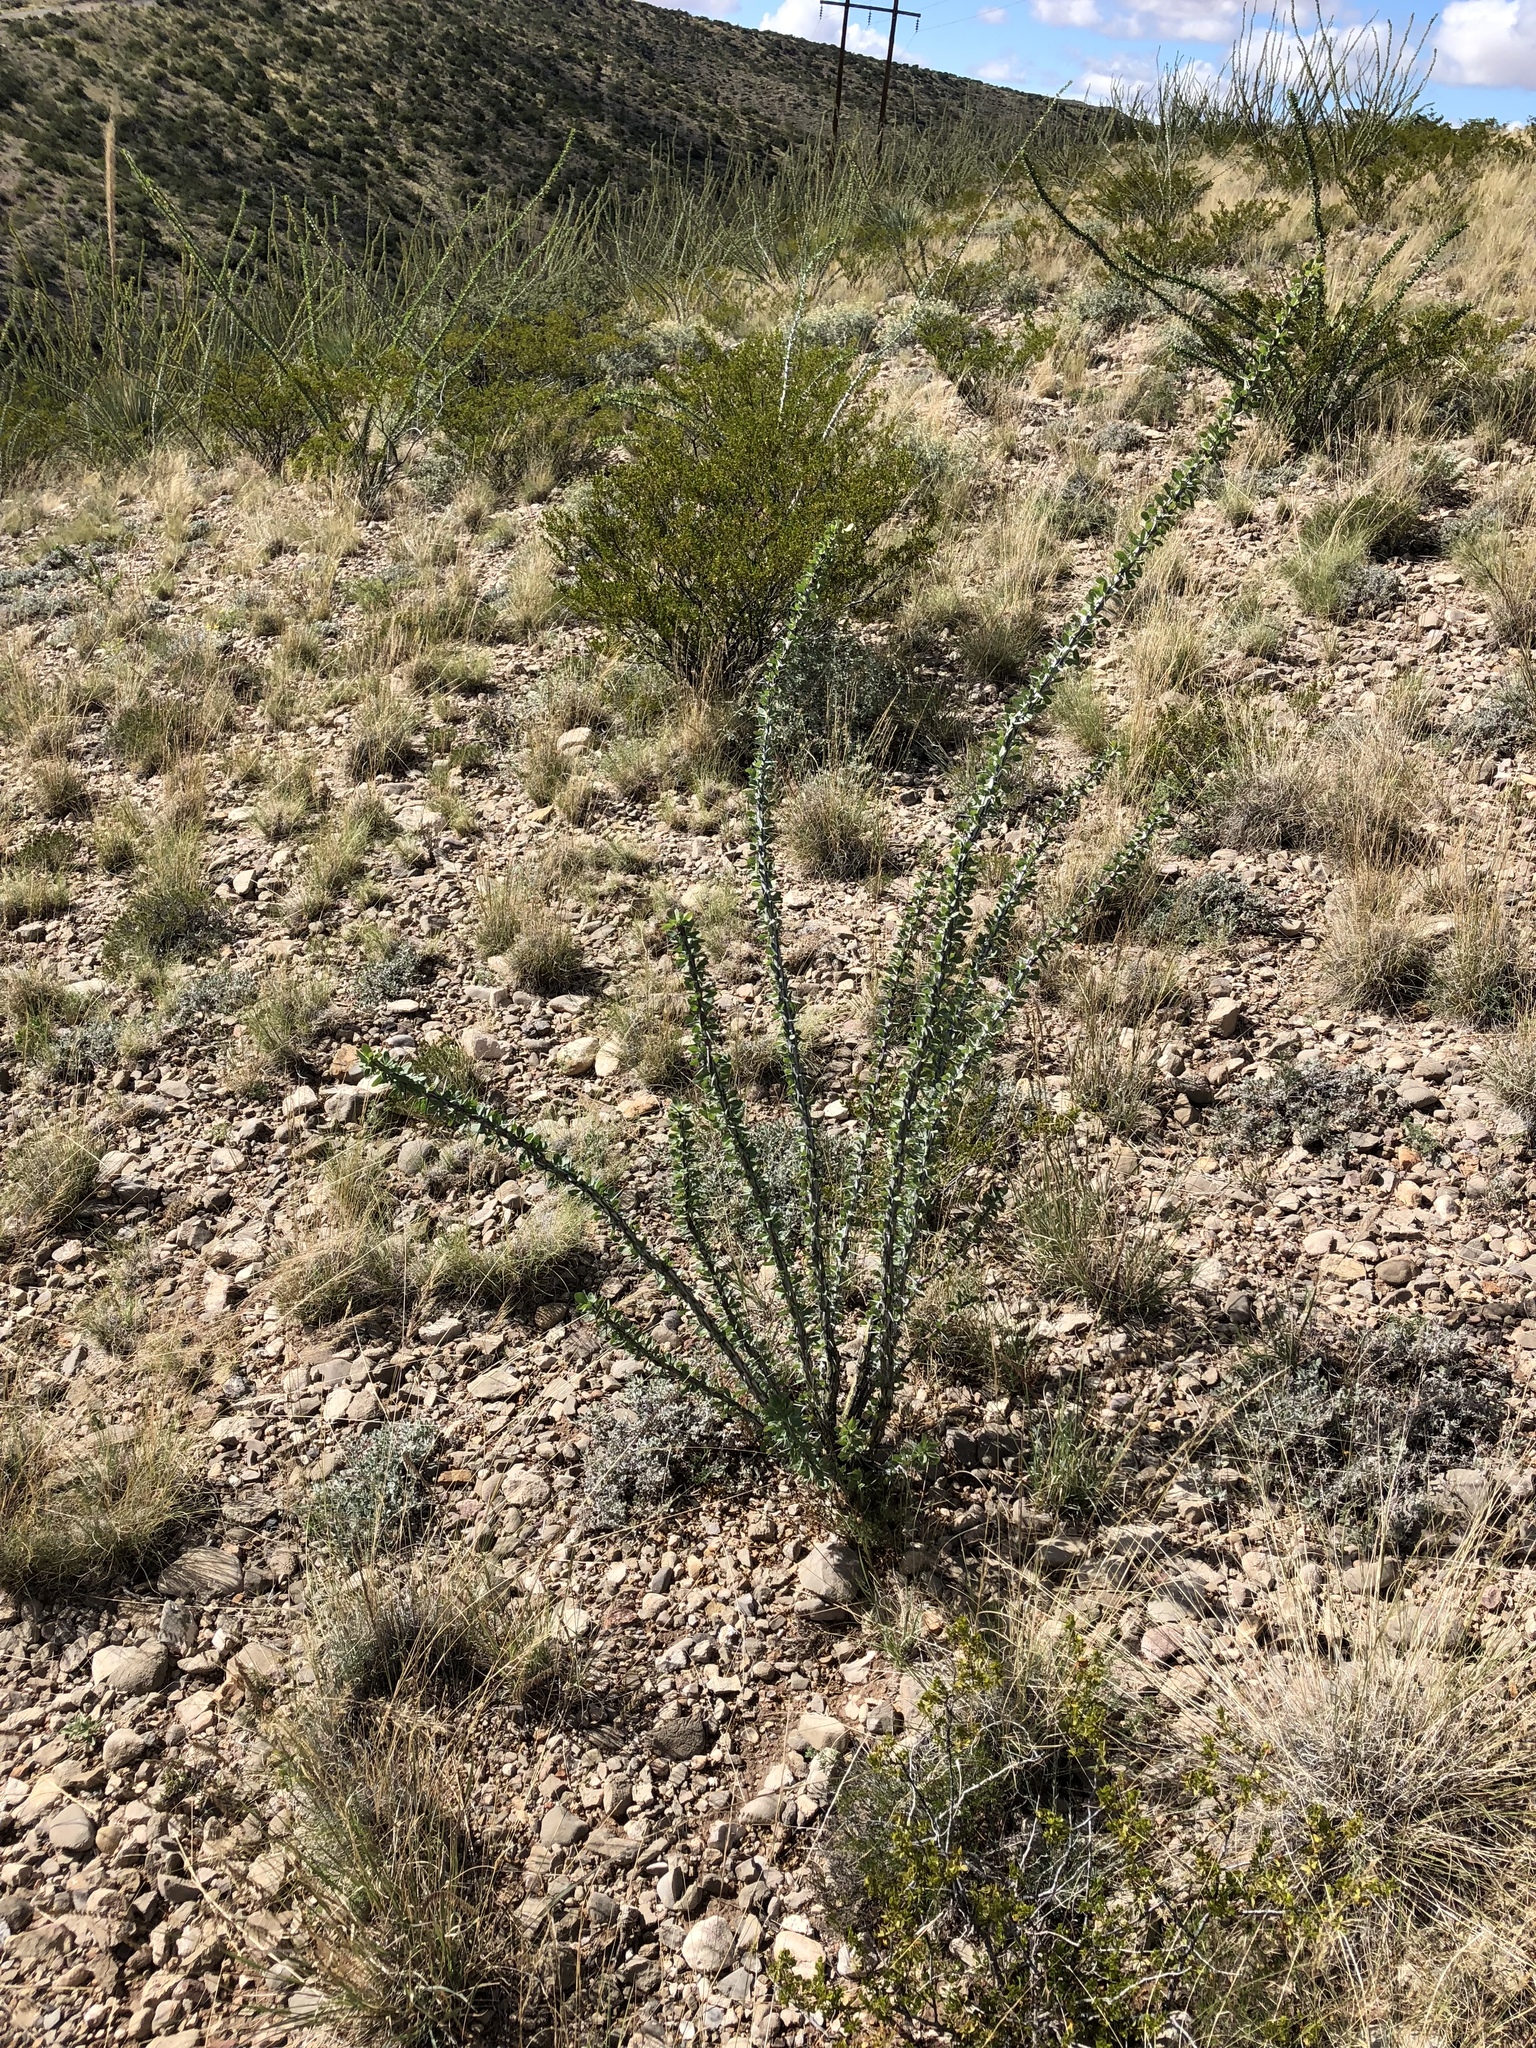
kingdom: Plantae
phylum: Tracheophyta
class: Magnoliopsida
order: Ericales
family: Fouquieriaceae
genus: Fouquieria
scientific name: Fouquieria splendens
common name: Vine-cactus
